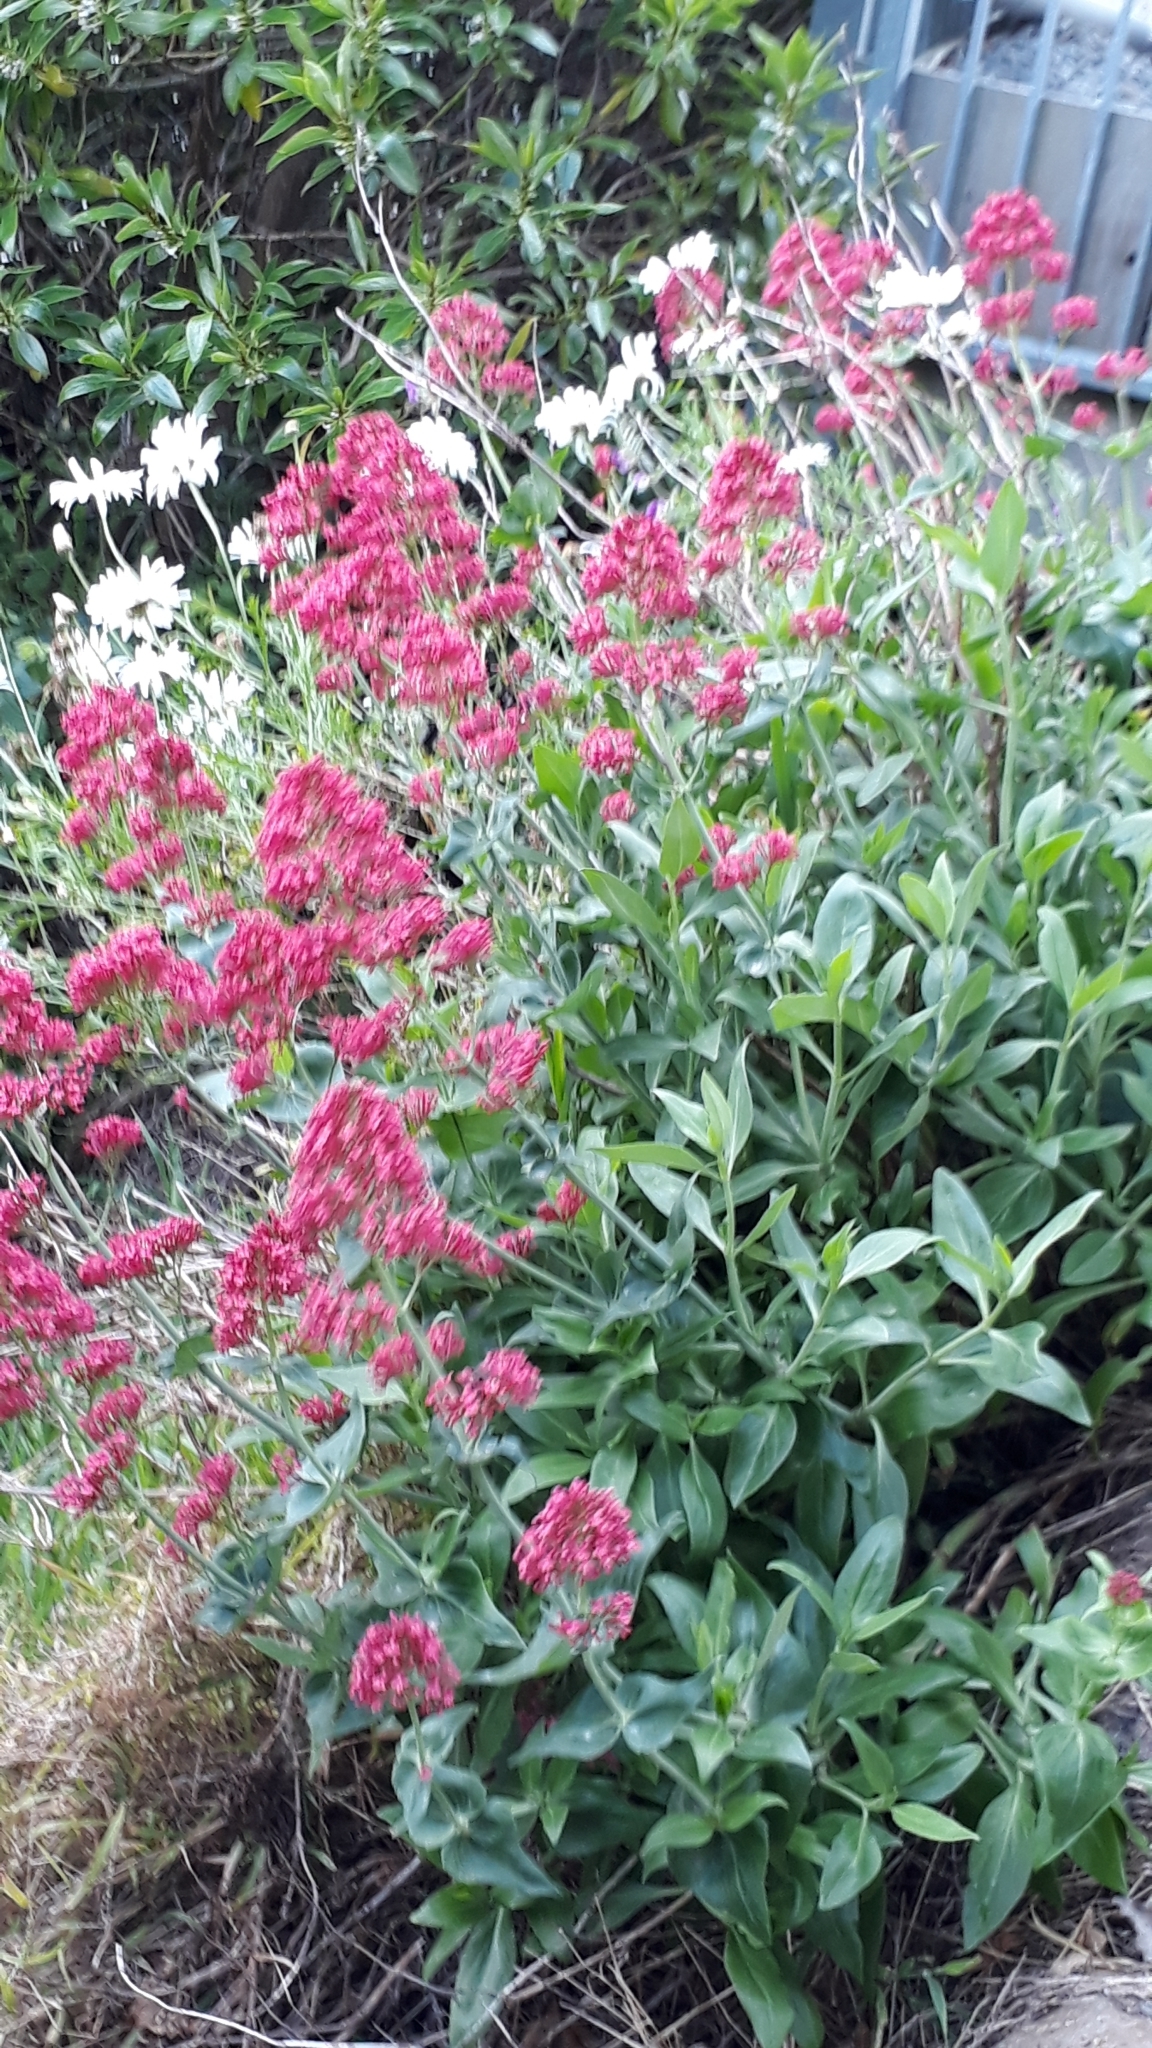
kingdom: Plantae
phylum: Tracheophyta
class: Magnoliopsida
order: Dipsacales
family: Caprifoliaceae
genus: Centranthus
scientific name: Centranthus ruber
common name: Red valerian
